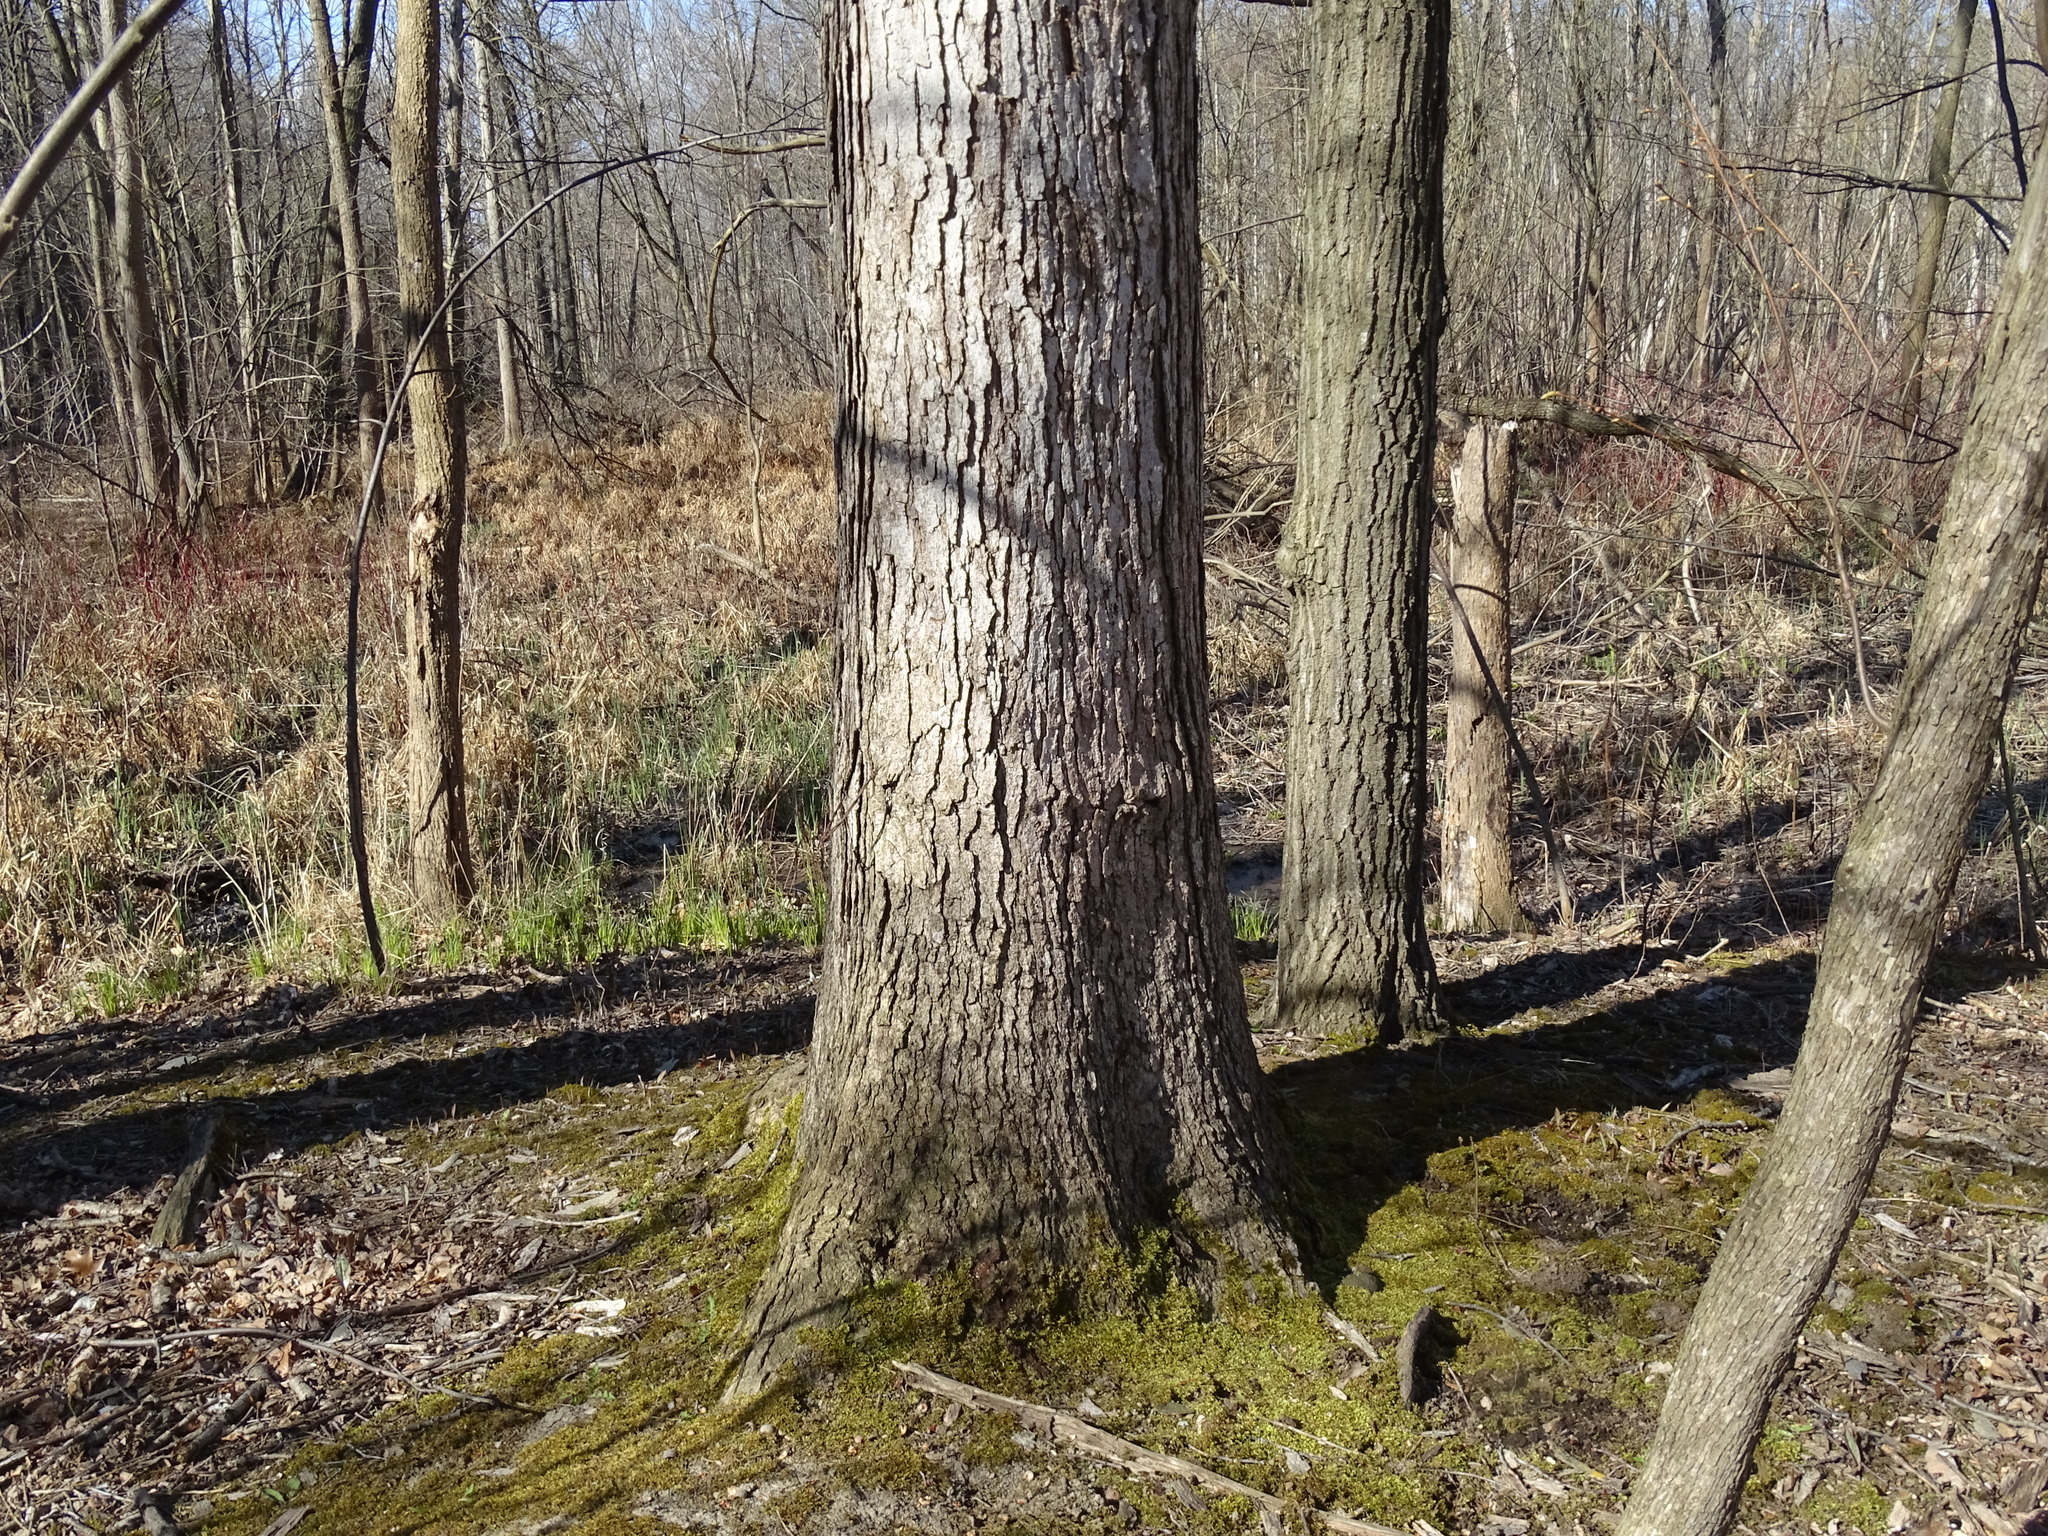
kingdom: Plantae
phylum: Tracheophyta
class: Magnoliopsida
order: Fagales
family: Fagaceae
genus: Quercus
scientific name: Quercus alba
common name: White oak
